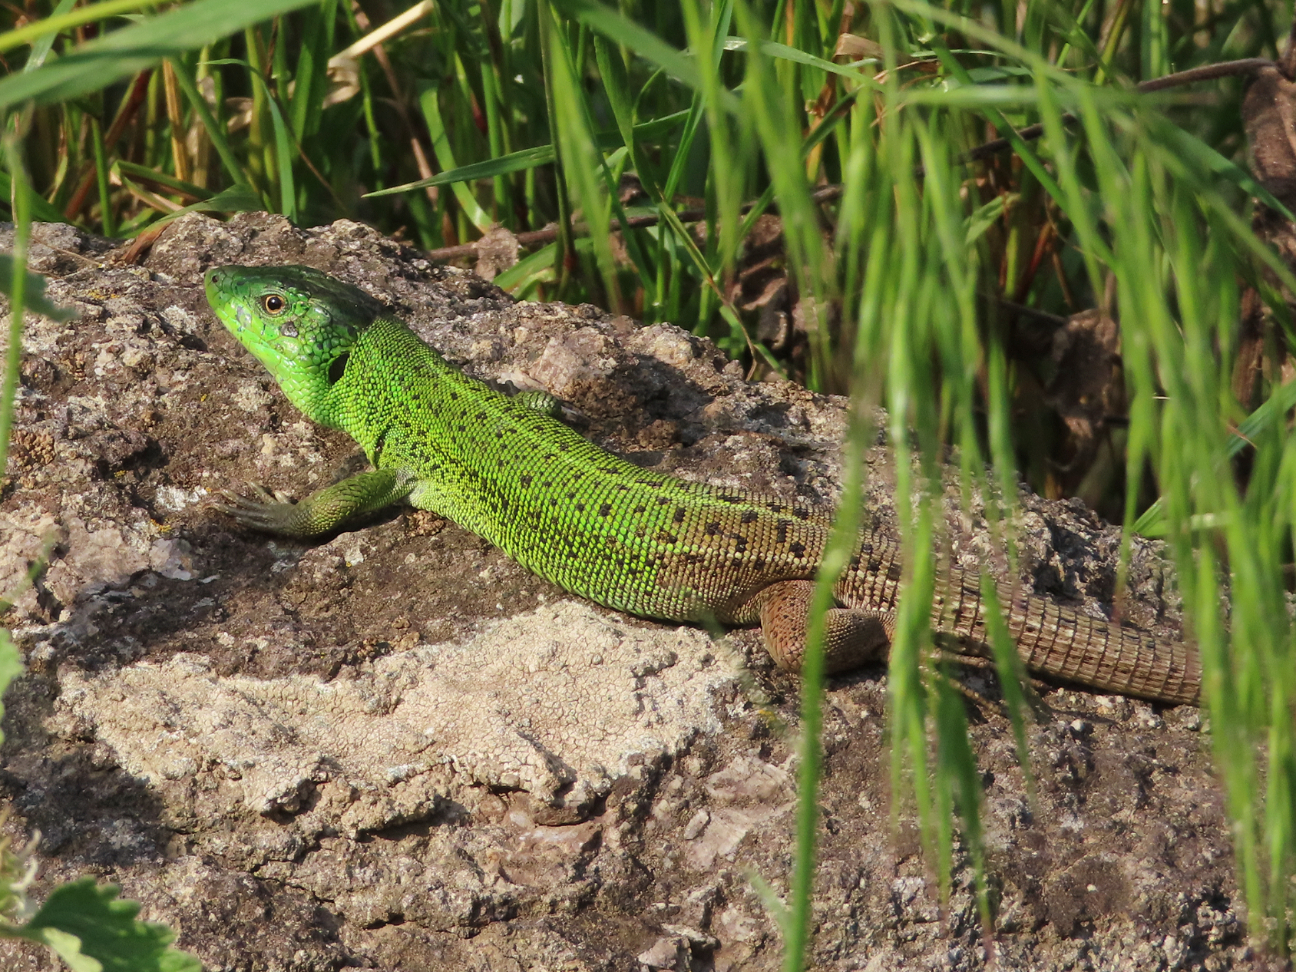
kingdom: Animalia
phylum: Chordata
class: Squamata
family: Lacertidae
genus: Lacerta
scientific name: Lacerta strigata
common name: Caspian green lizard
